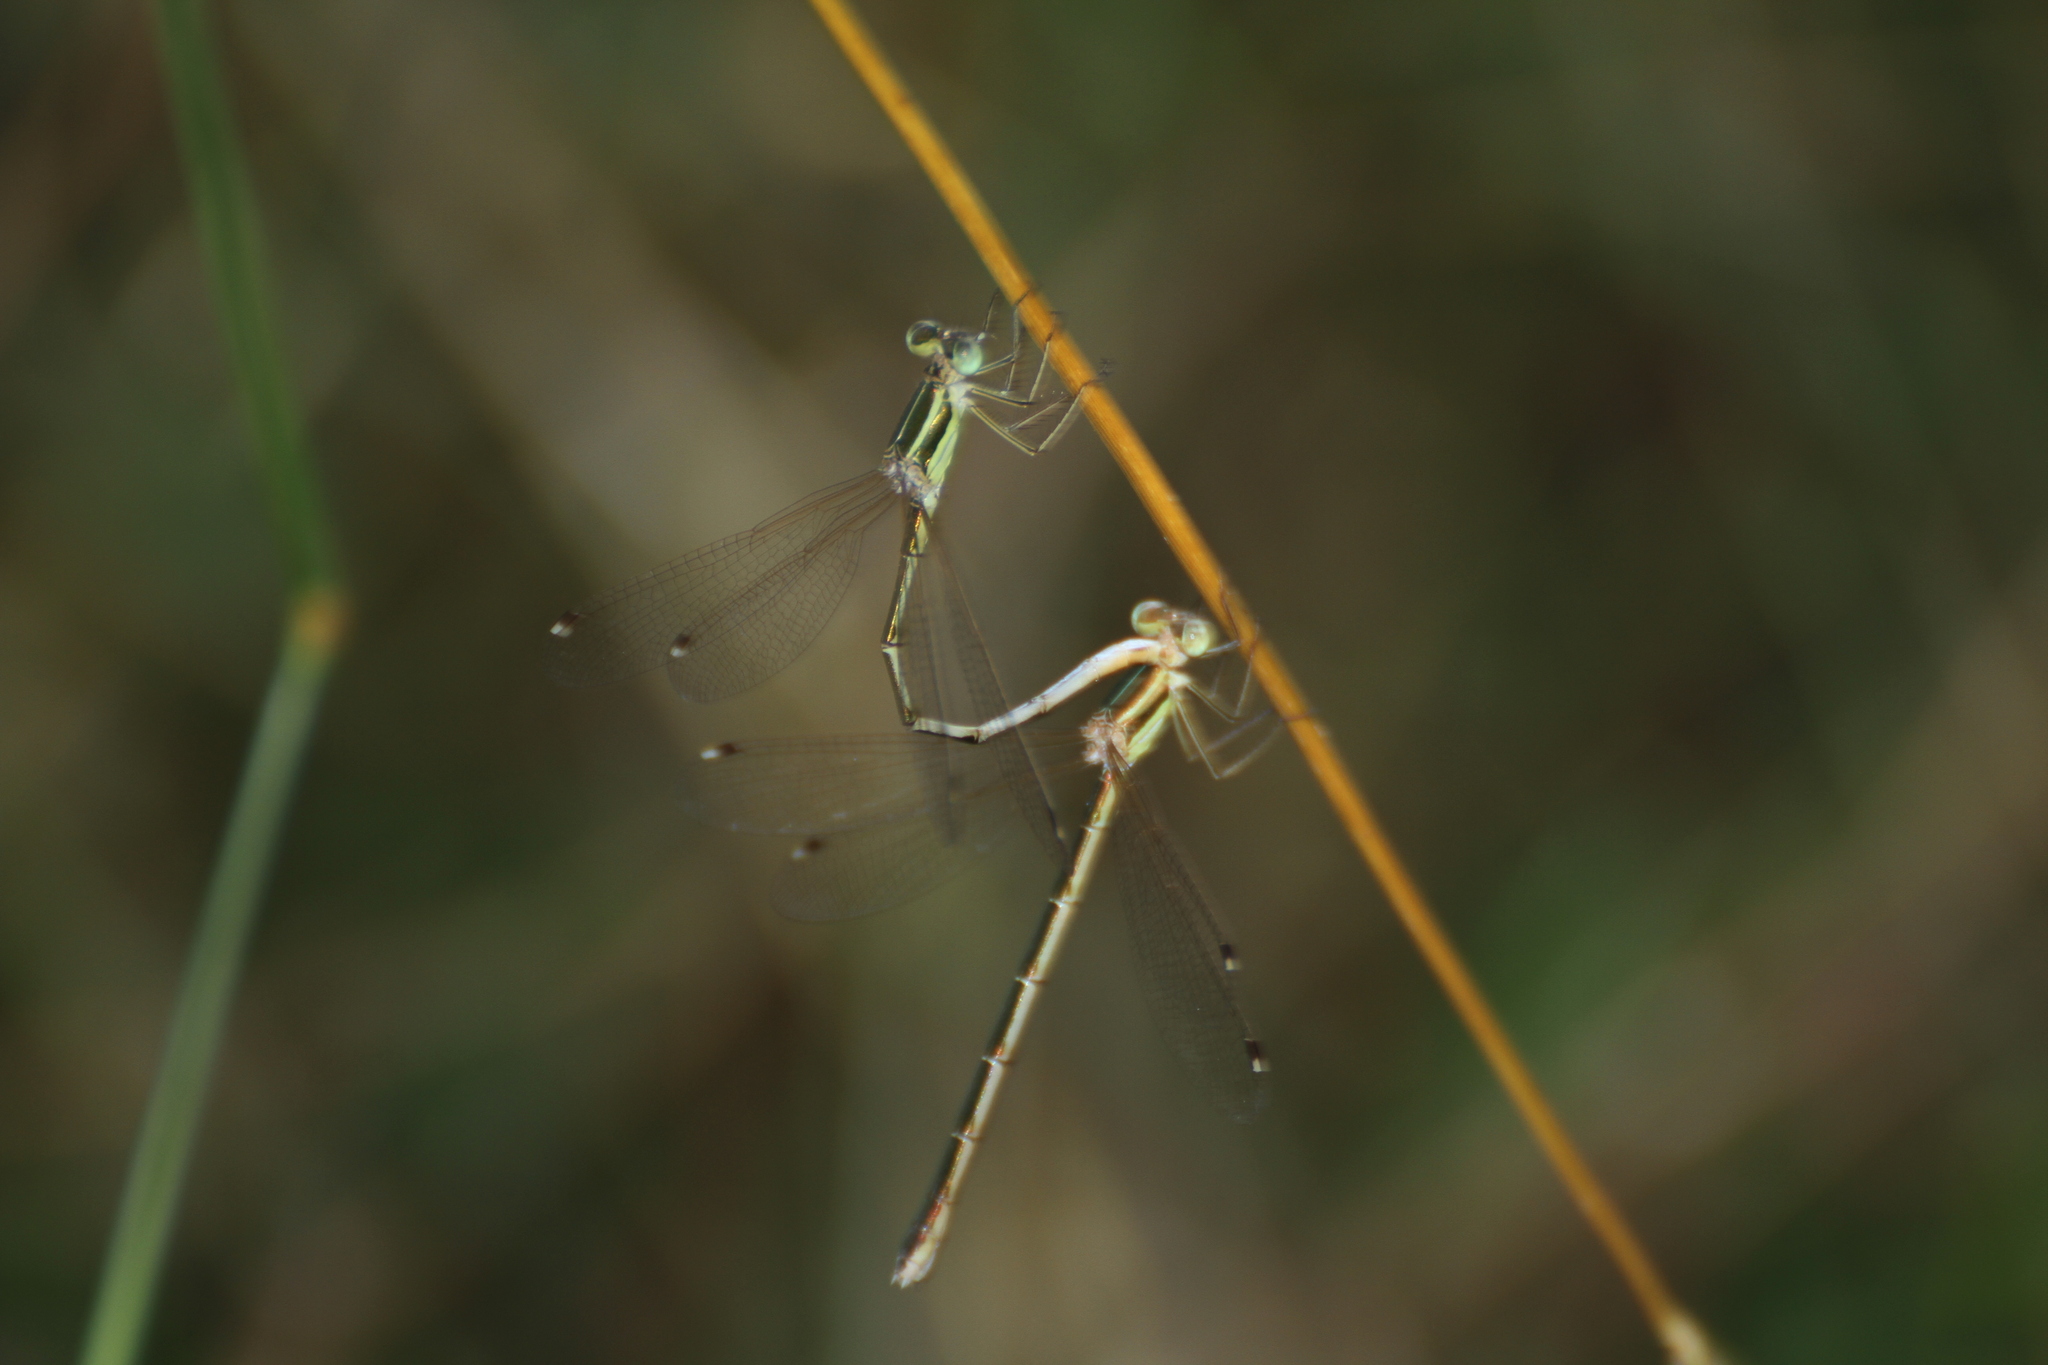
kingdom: Animalia
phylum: Arthropoda
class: Insecta
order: Odonata
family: Lestidae
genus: Lestes
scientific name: Lestes barbarus
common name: Migrant spreadwing
